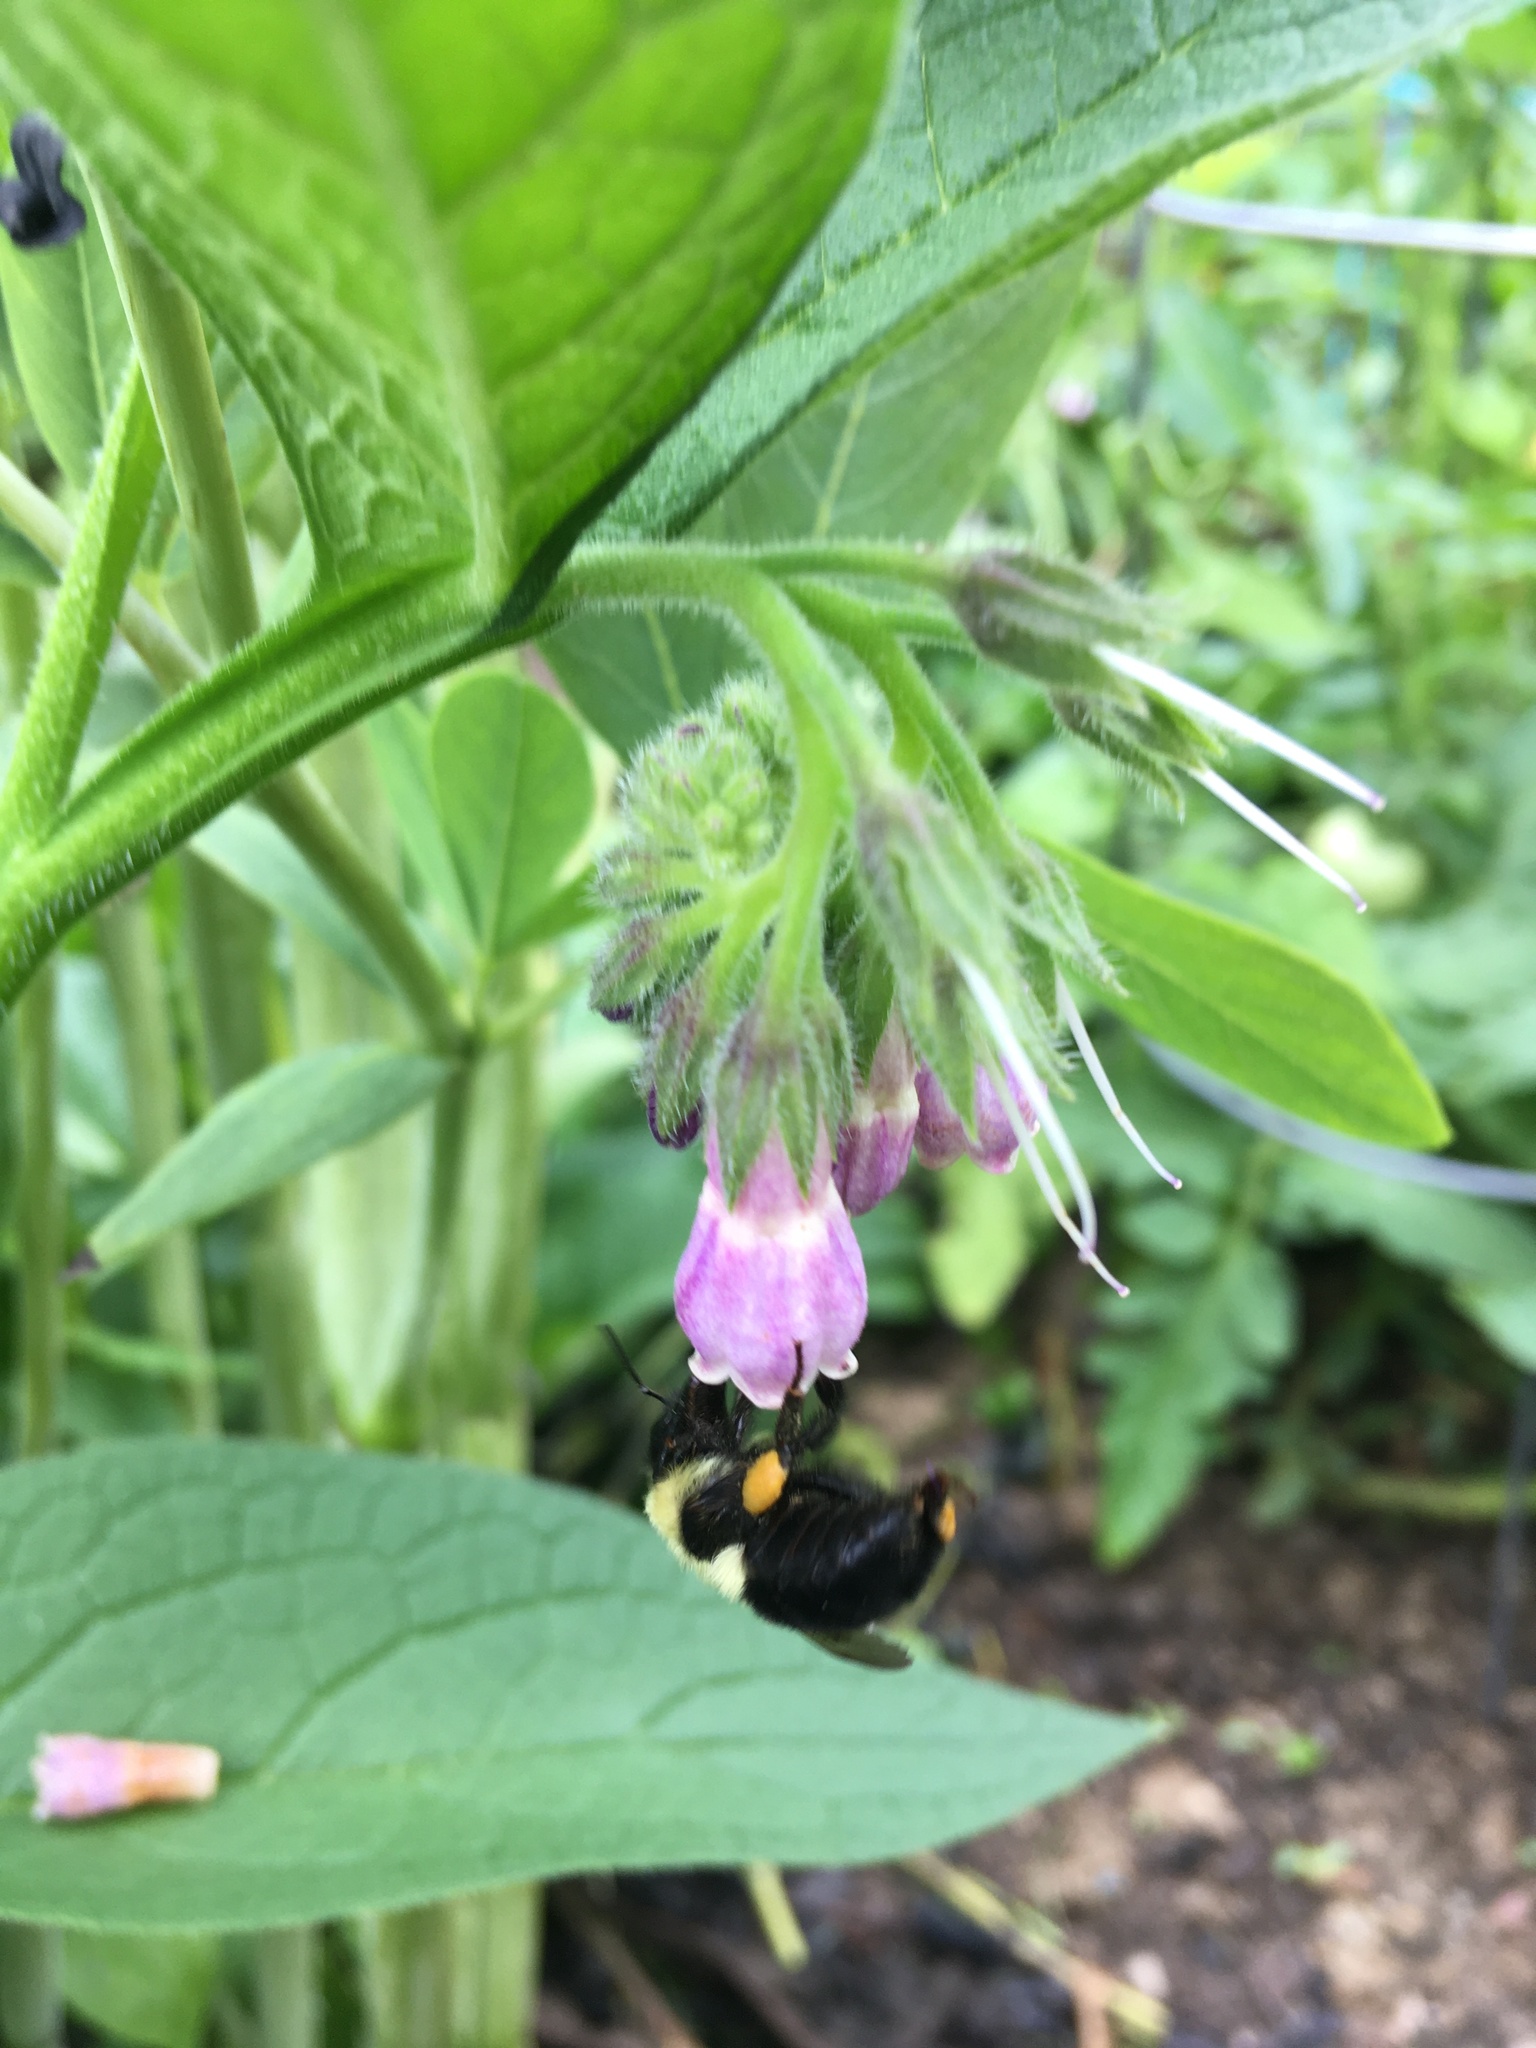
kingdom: Animalia
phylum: Arthropoda
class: Insecta
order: Hymenoptera
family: Apidae
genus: Bombus
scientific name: Bombus impatiens
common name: Common eastern bumble bee
